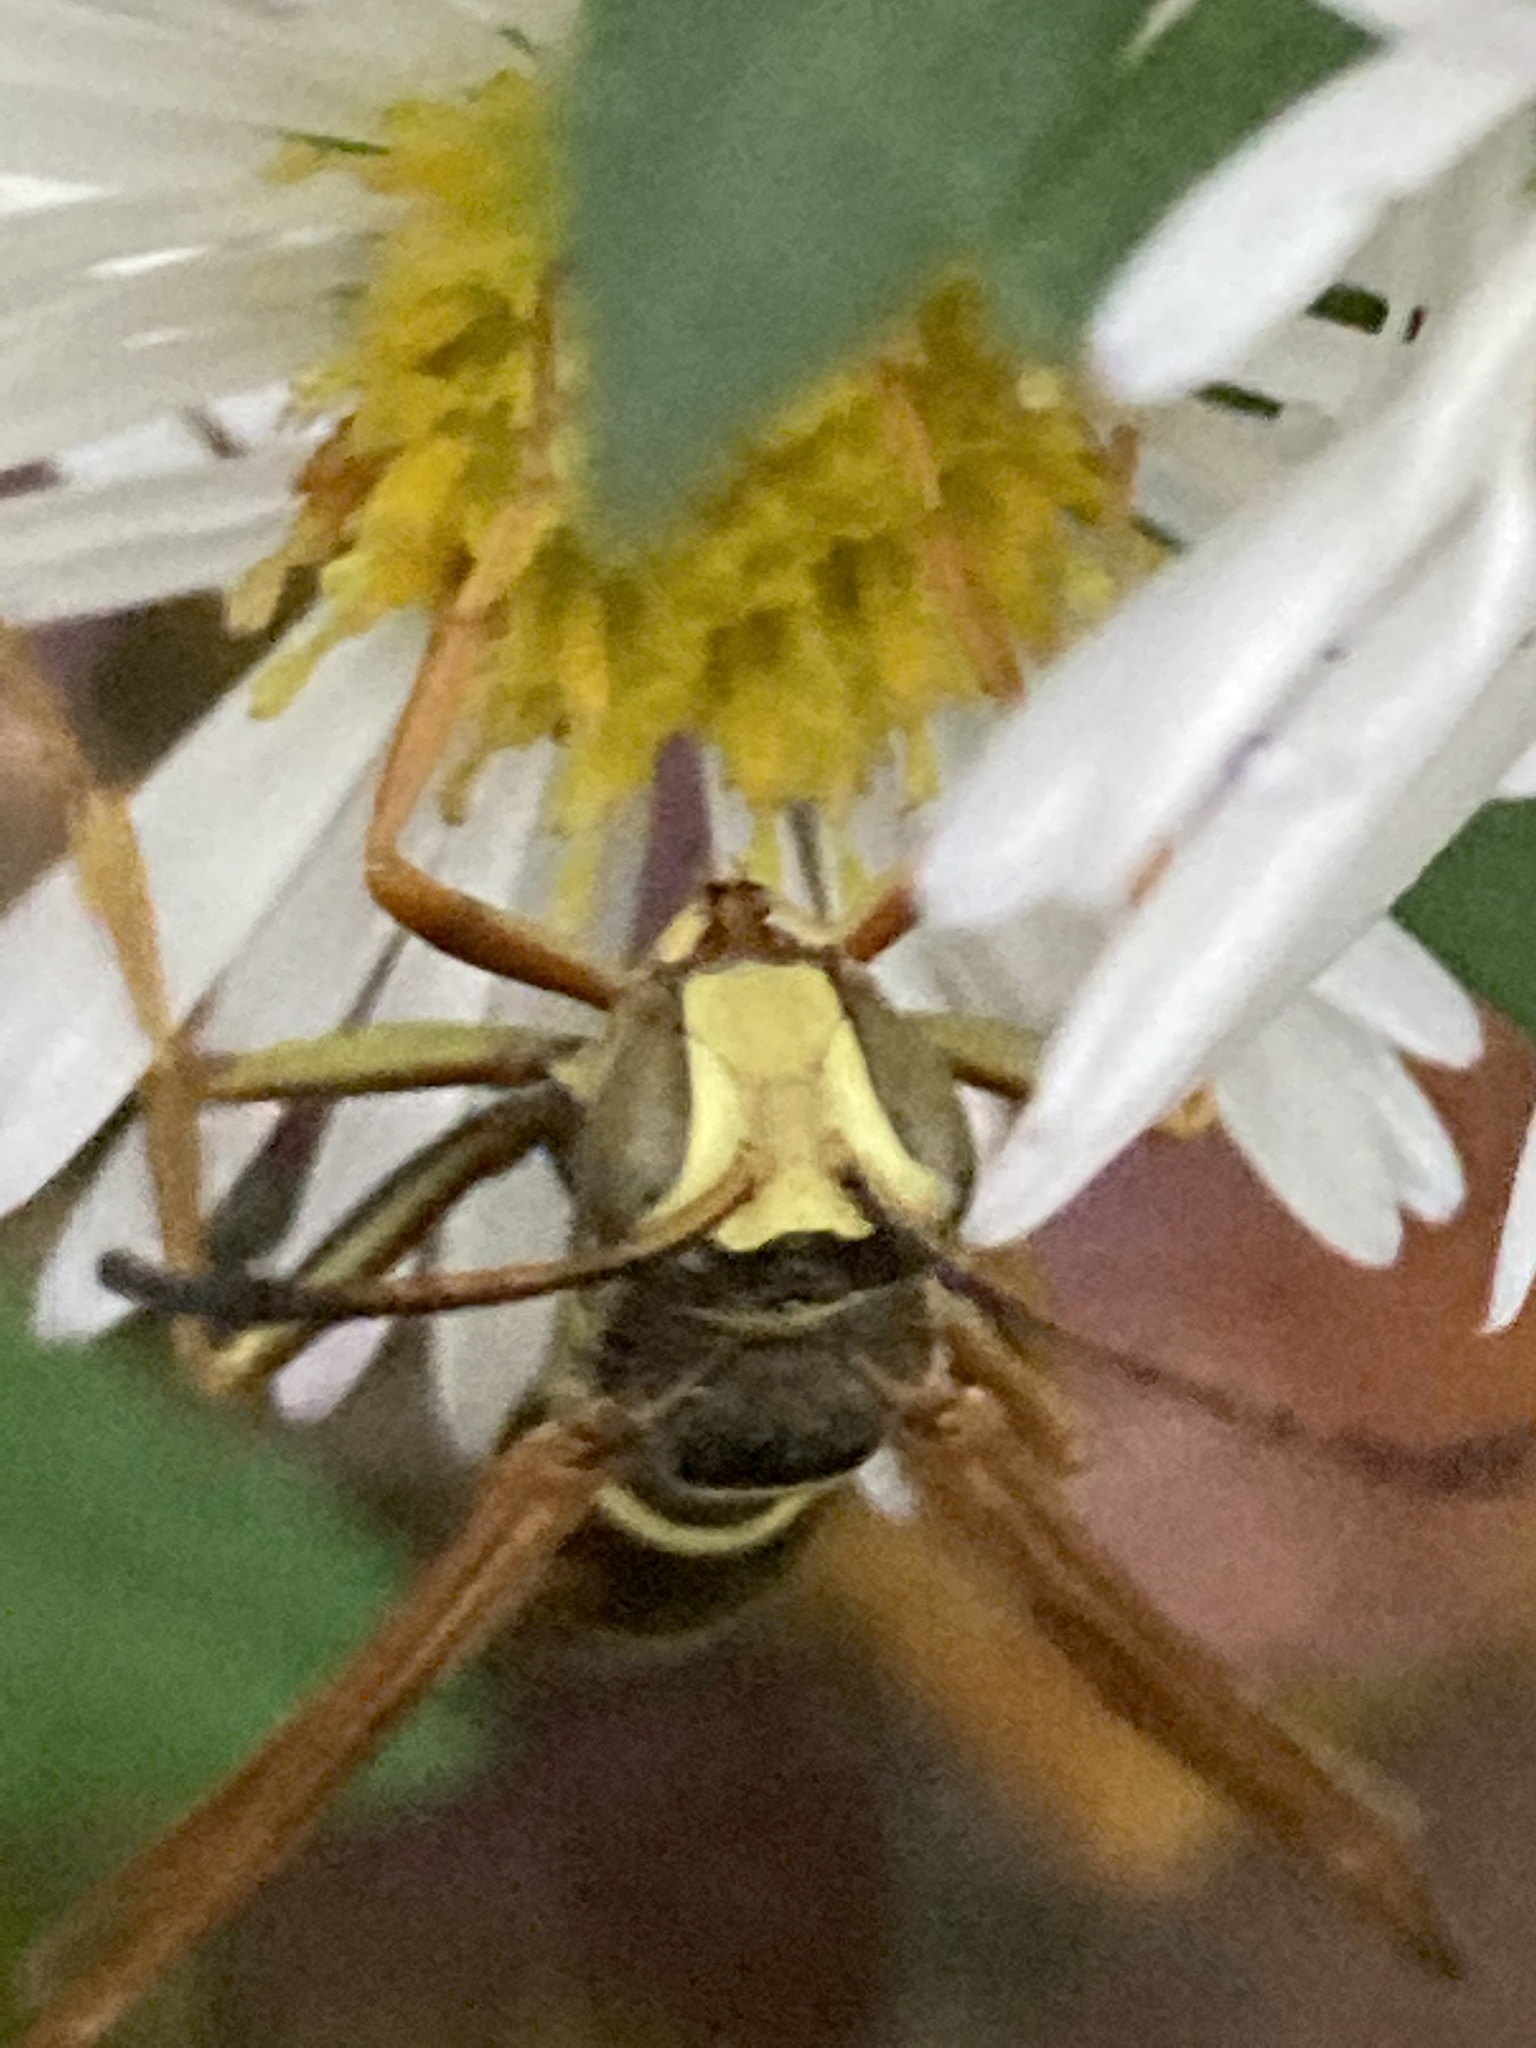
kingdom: Animalia
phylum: Arthropoda
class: Insecta
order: Hymenoptera
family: Eumenidae
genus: Polistes
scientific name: Polistes fuscatus
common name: Dark paper wasp
